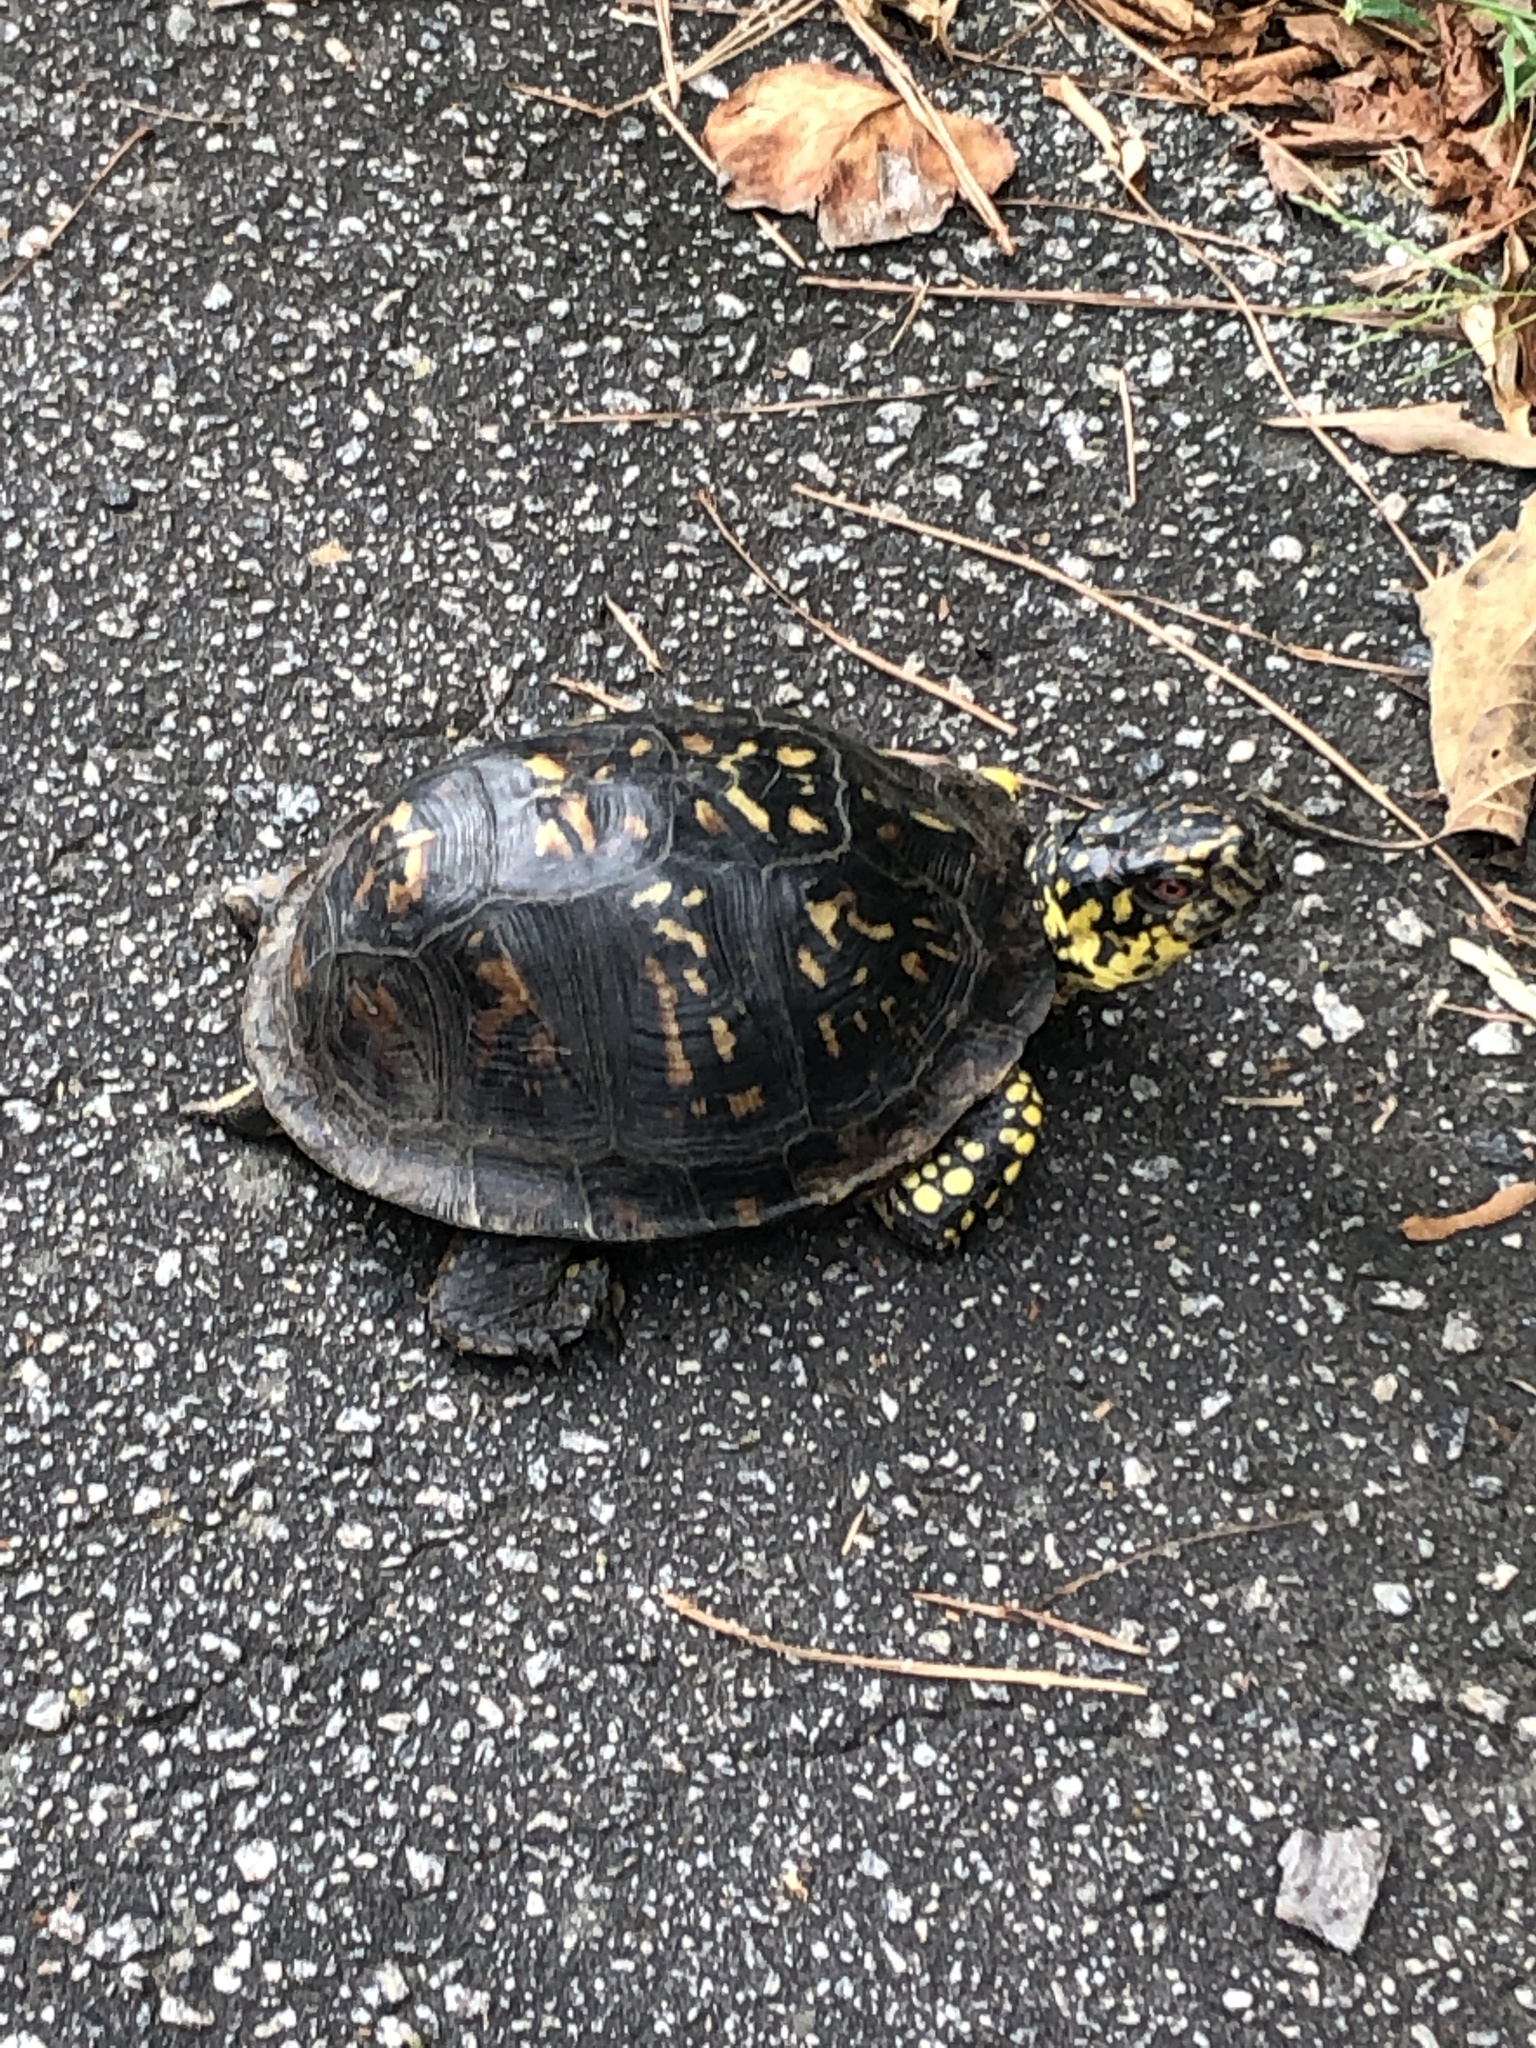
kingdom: Animalia
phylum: Chordata
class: Testudines
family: Emydidae
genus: Terrapene
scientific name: Terrapene carolina
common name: Common box turtle
